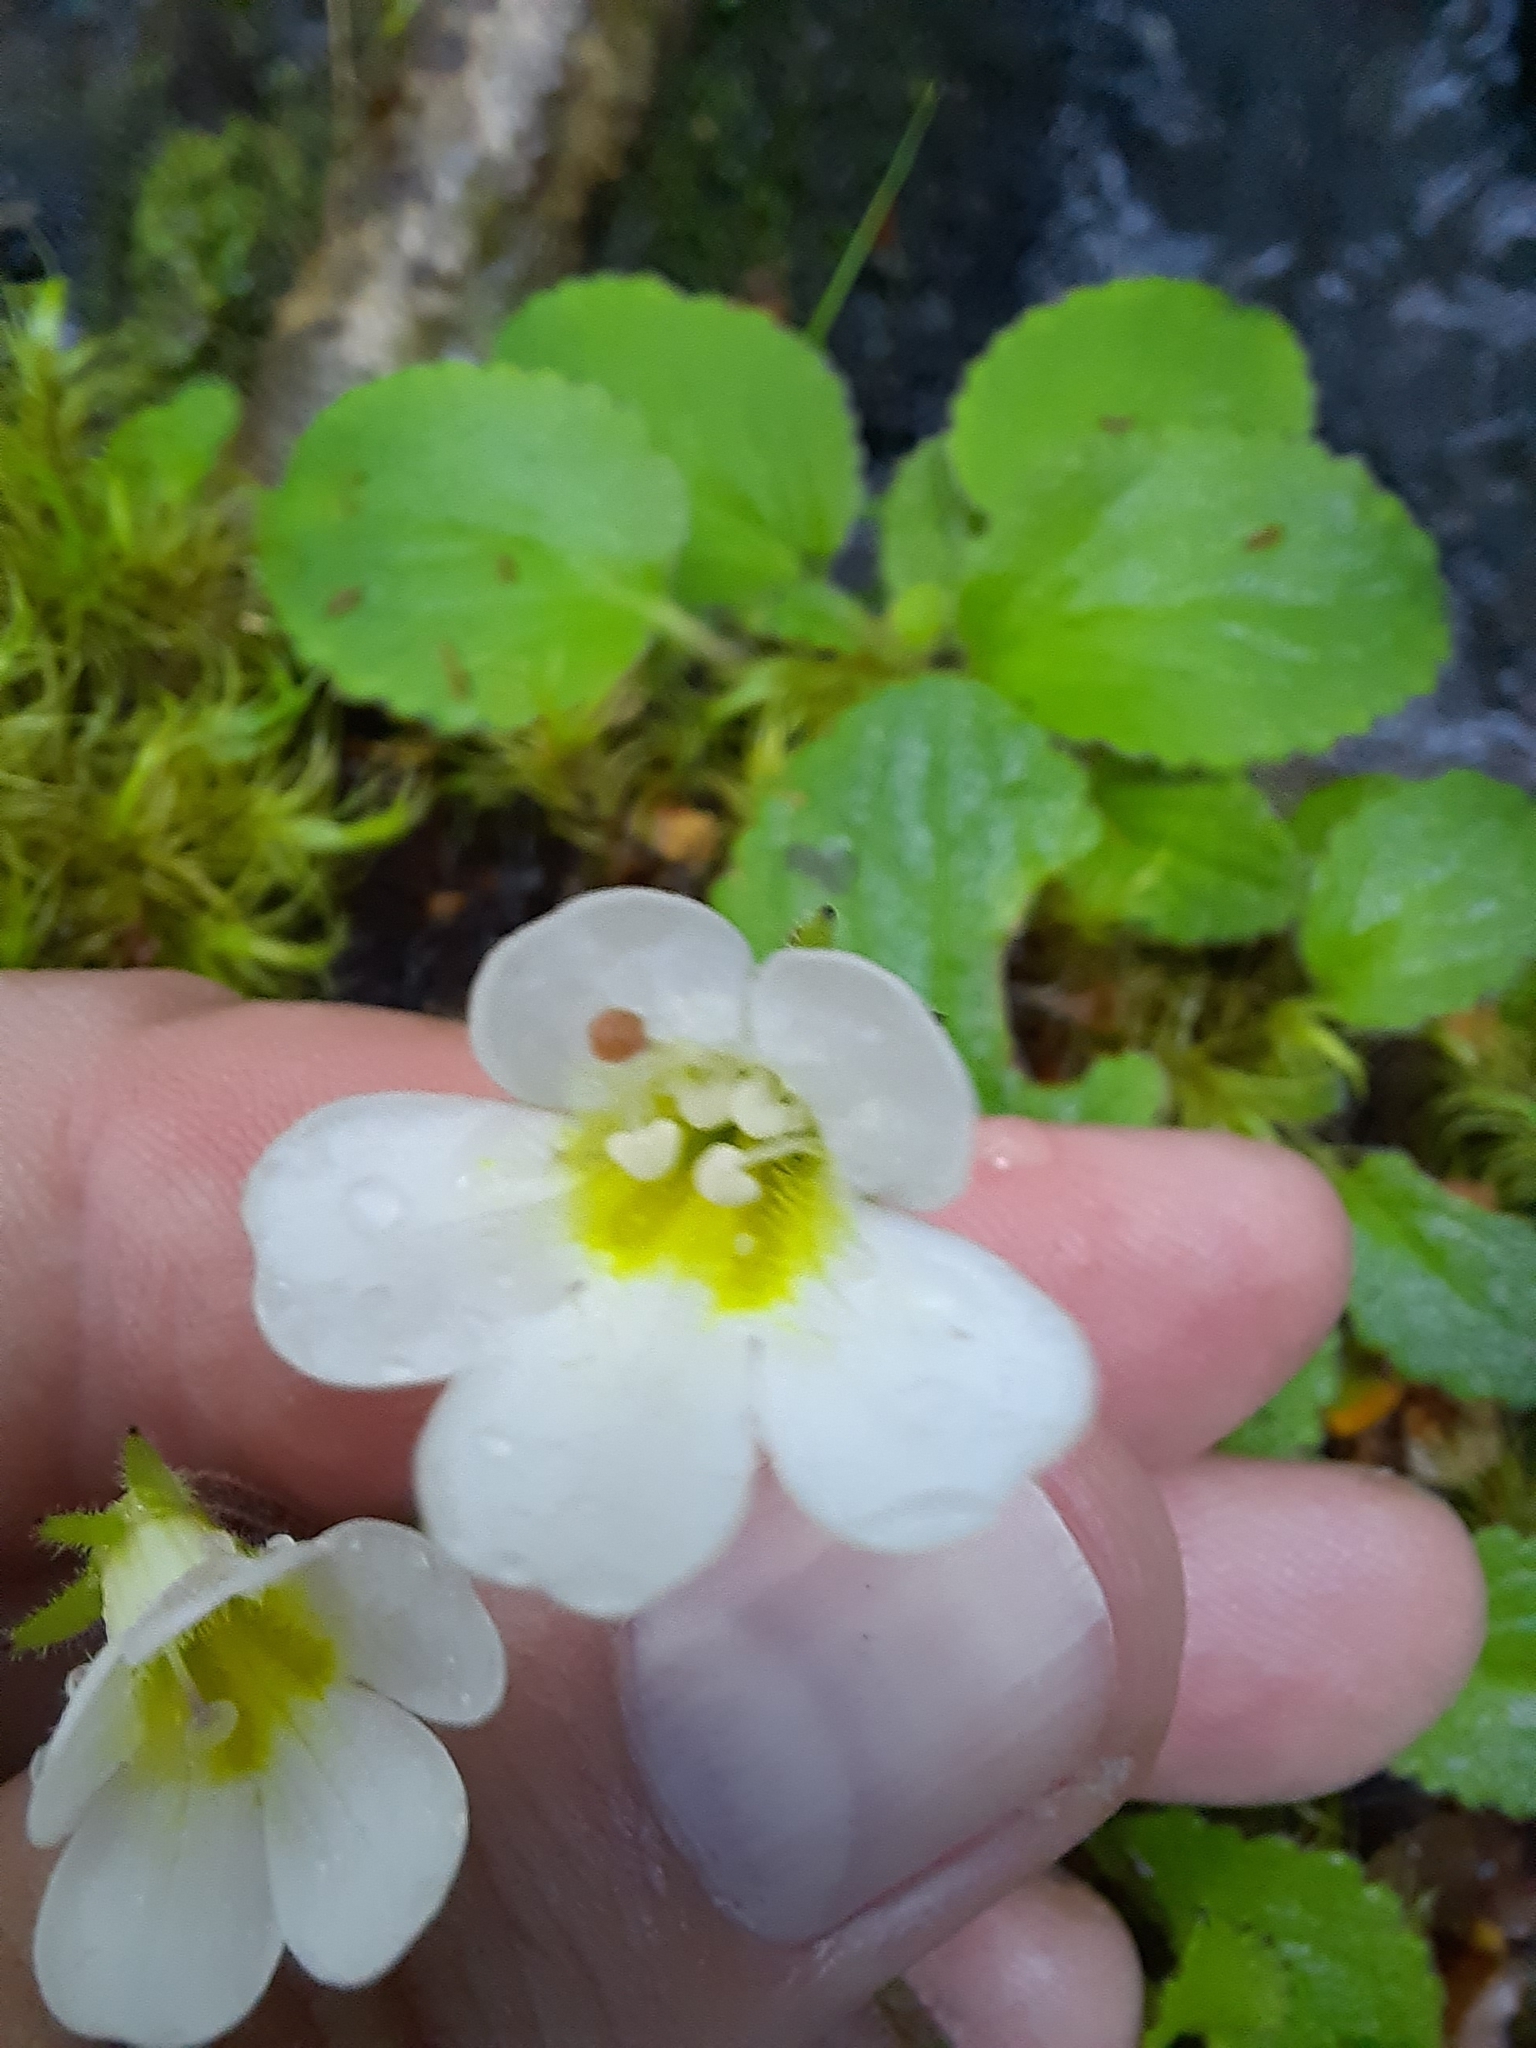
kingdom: Plantae
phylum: Tracheophyta
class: Magnoliopsida
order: Lamiales
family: Plantaginaceae
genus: Ourisia
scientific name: Ourisia macrophylla
